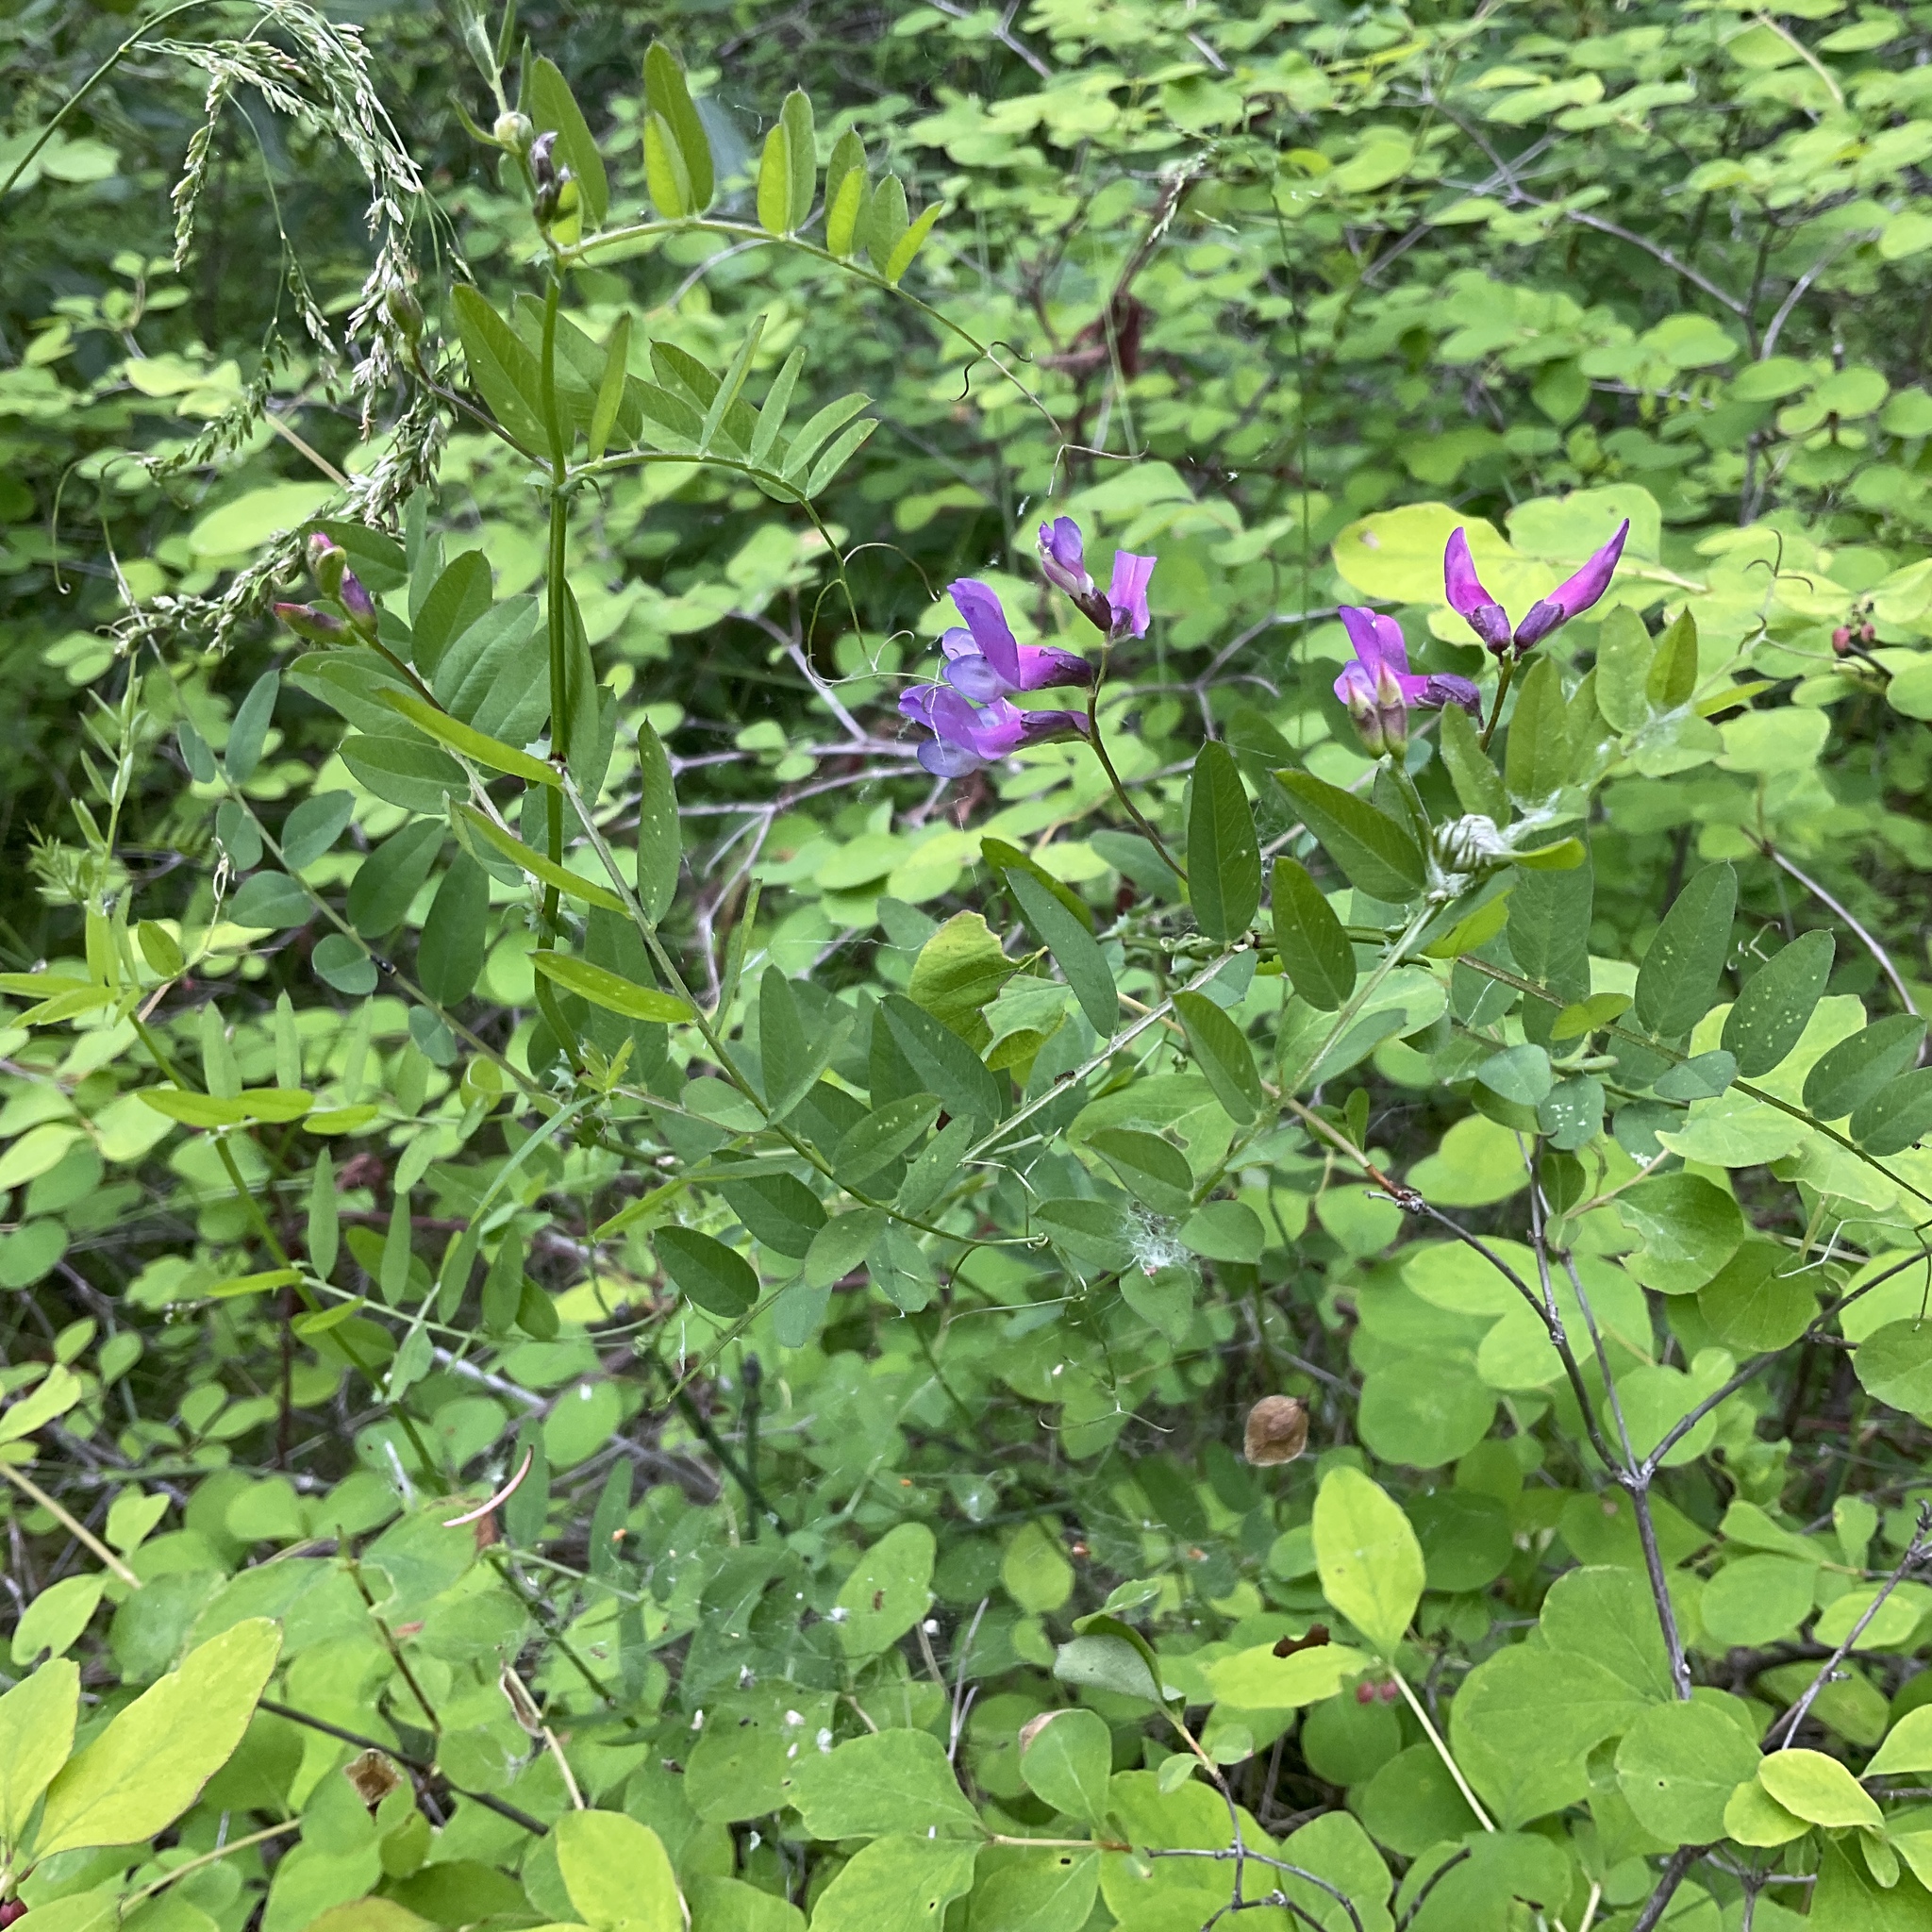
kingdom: Plantae
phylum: Tracheophyta
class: Magnoliopsida
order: Fabales
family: Fabaceae
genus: Vicia
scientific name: Vicia americana
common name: American vetch
